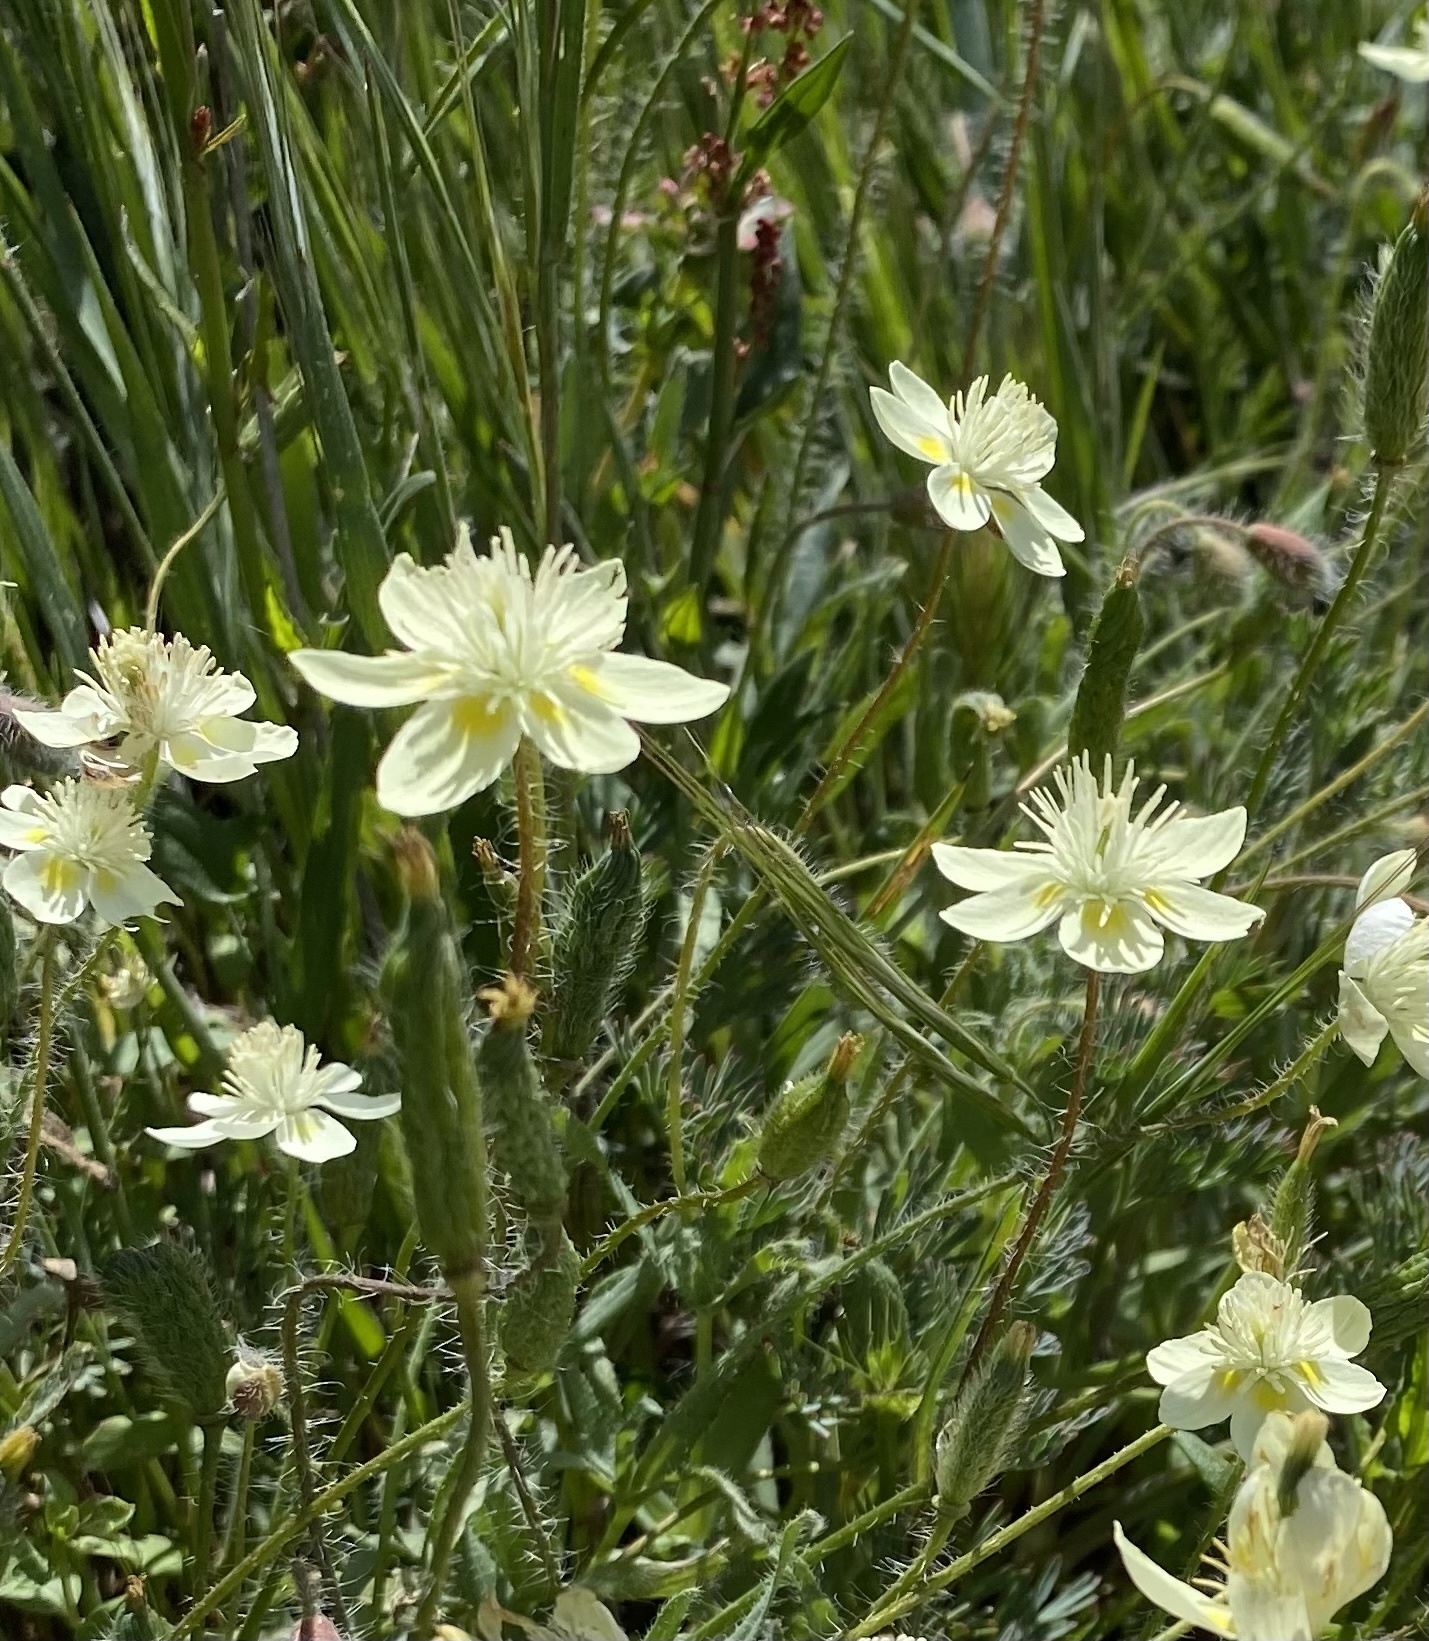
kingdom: Plantae
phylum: Tracheophyta
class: Magnoliopsida
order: Ranunculales
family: Papaveraceae
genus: Platystemon
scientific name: Platystemon californicus
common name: Cream-cups
